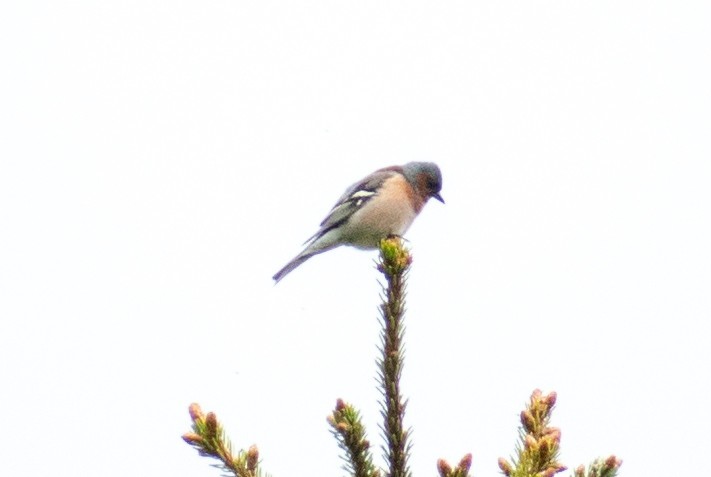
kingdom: Animalia
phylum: Chordata
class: Aves
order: Passeriformes
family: Fringillidae
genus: Fringilla
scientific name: Fringilla coelebs
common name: Common chaffinch
